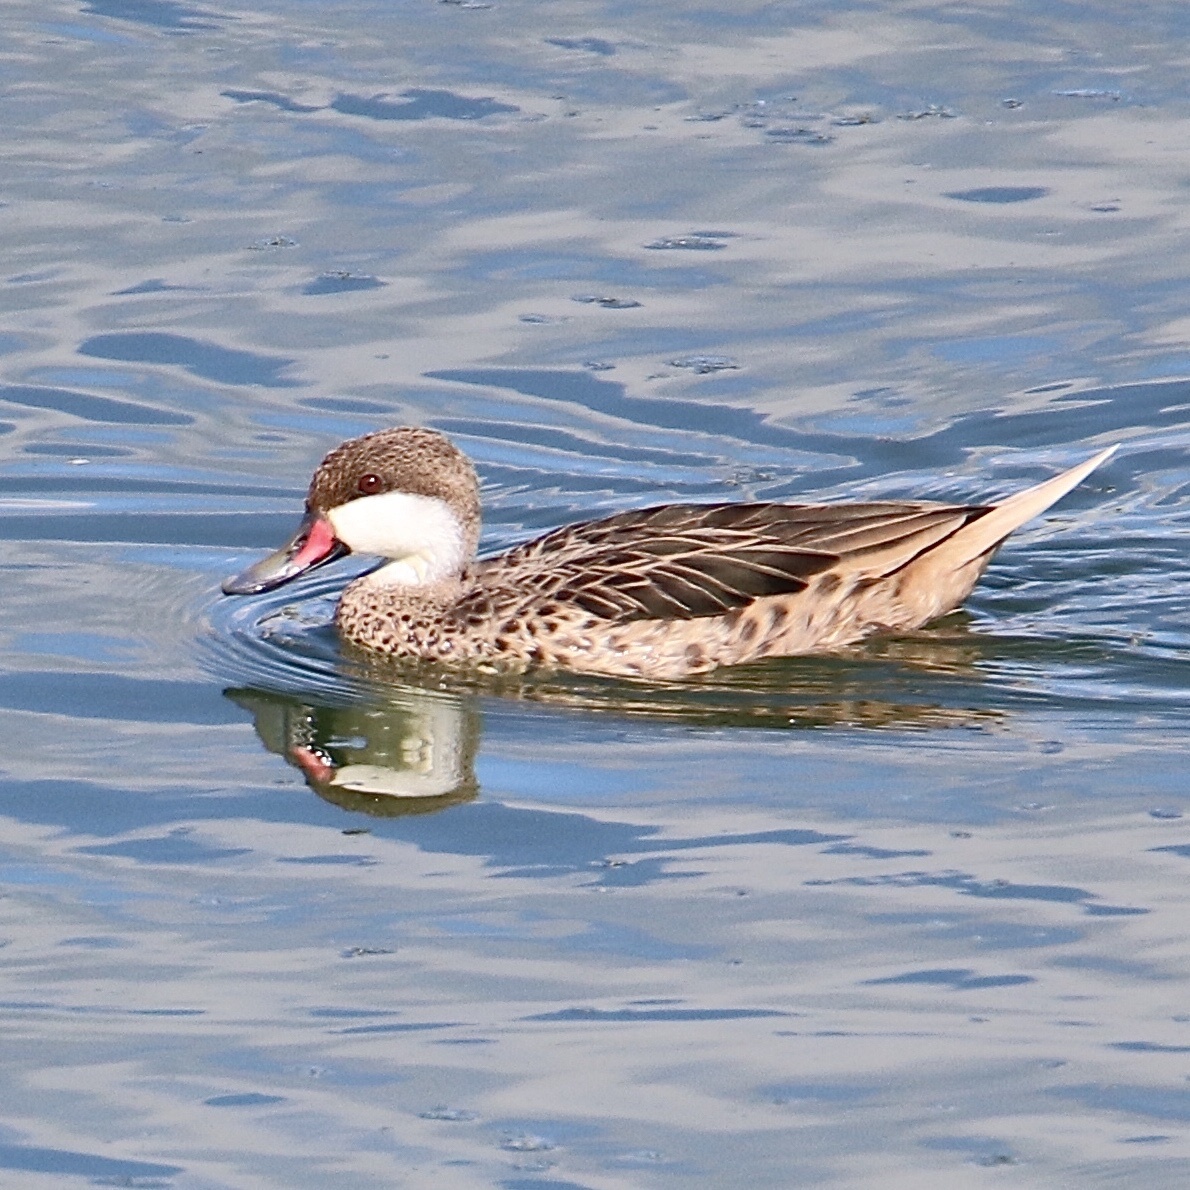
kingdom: Animalia
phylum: Chordata
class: Aves
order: Anseriformes
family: Anatidae
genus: Anas
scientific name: Anas bahamensis
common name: White-cheeked pintail
